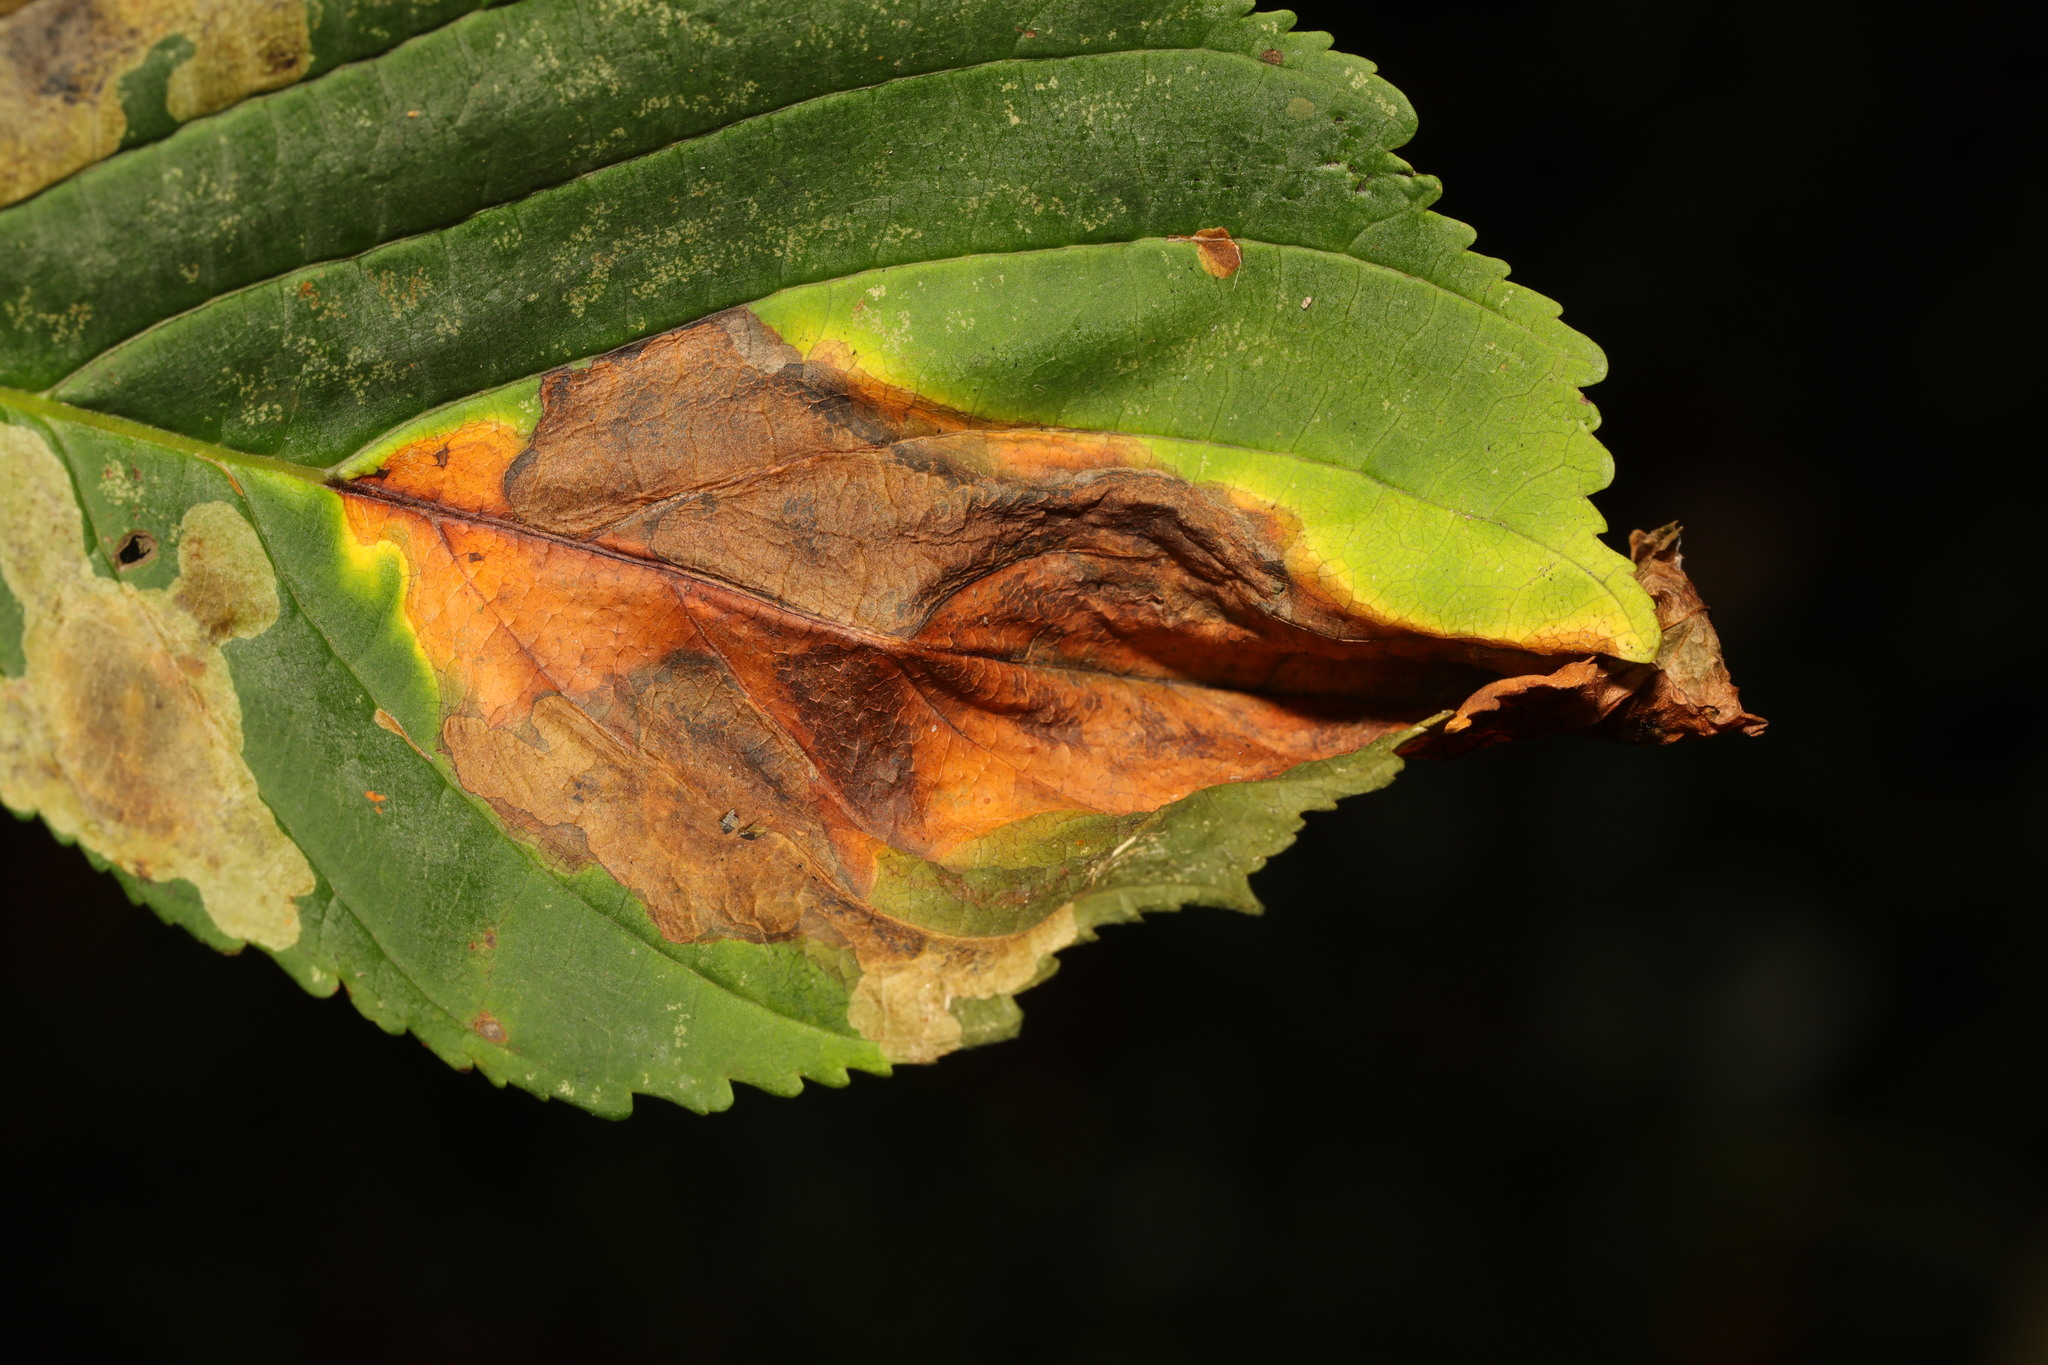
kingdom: Fungi
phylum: Ascomycota
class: Dothideomycetes
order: Botryosphaeriales
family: Phyllostictaceae
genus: Phyllosticta
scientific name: Phyllosticta paviae
